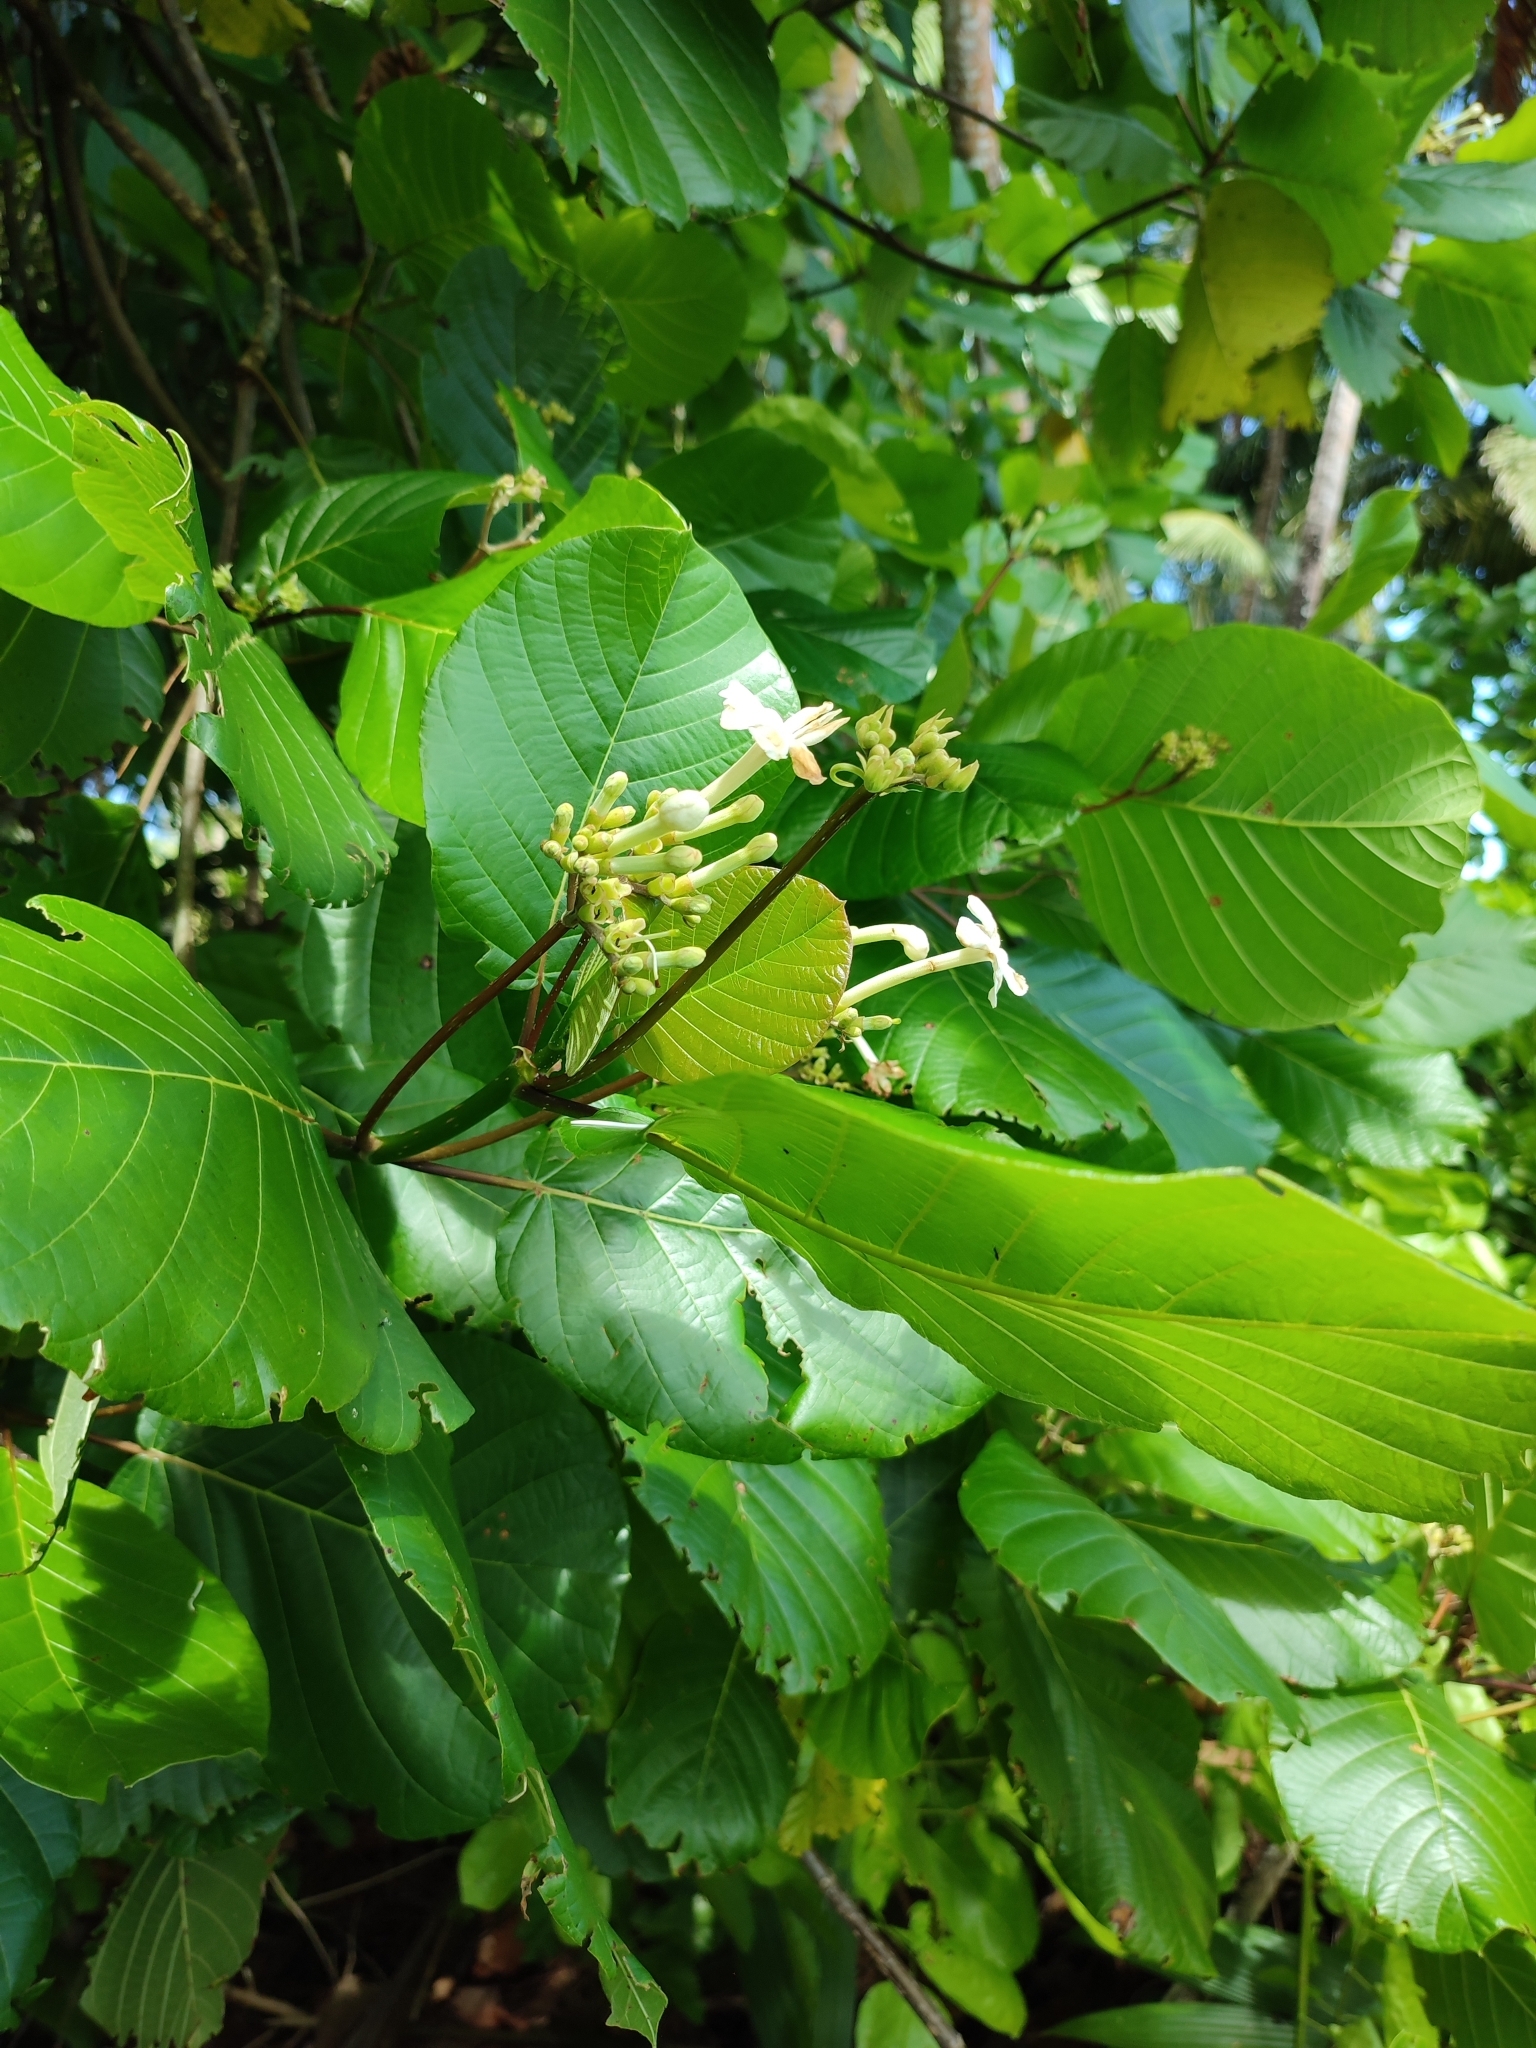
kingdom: Plantae
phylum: Tracheophyta
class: Magnoliopsida
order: Gentianales
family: Rubiaceae
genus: Guettarda
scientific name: Guettarda speciosa
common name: Sea randa
